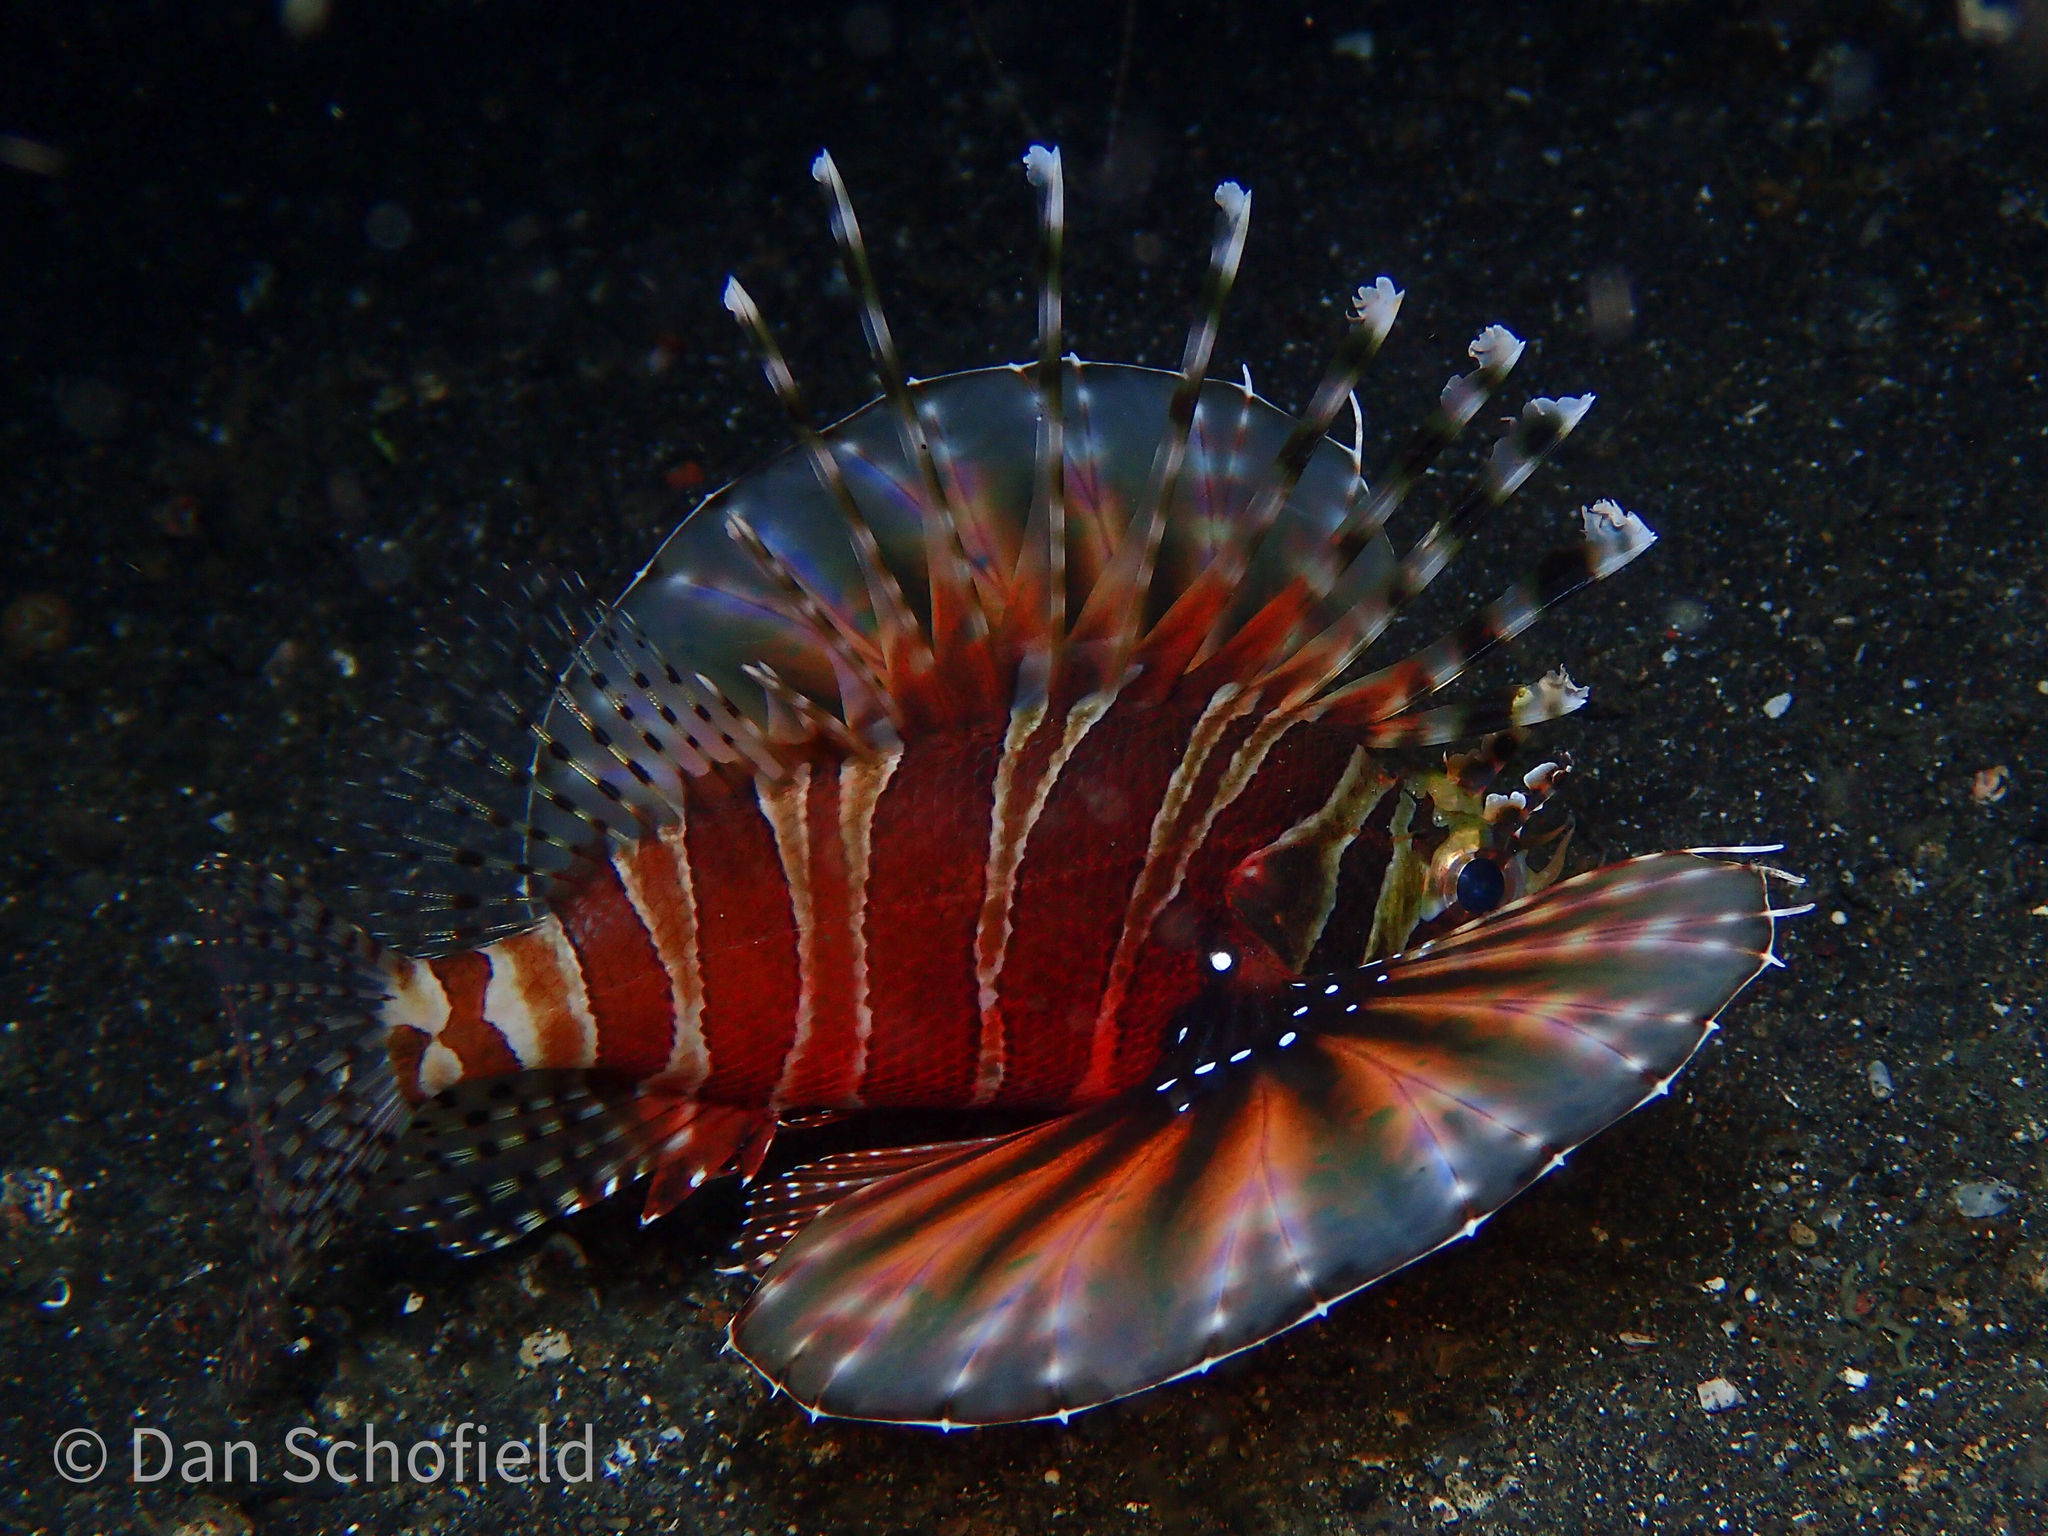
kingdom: Animalia
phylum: Chordata
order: Scorpaeniformes
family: Scorpaenidae
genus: Dendrochirus
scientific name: Dendrochirus zebra
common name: Zebra lionfish
